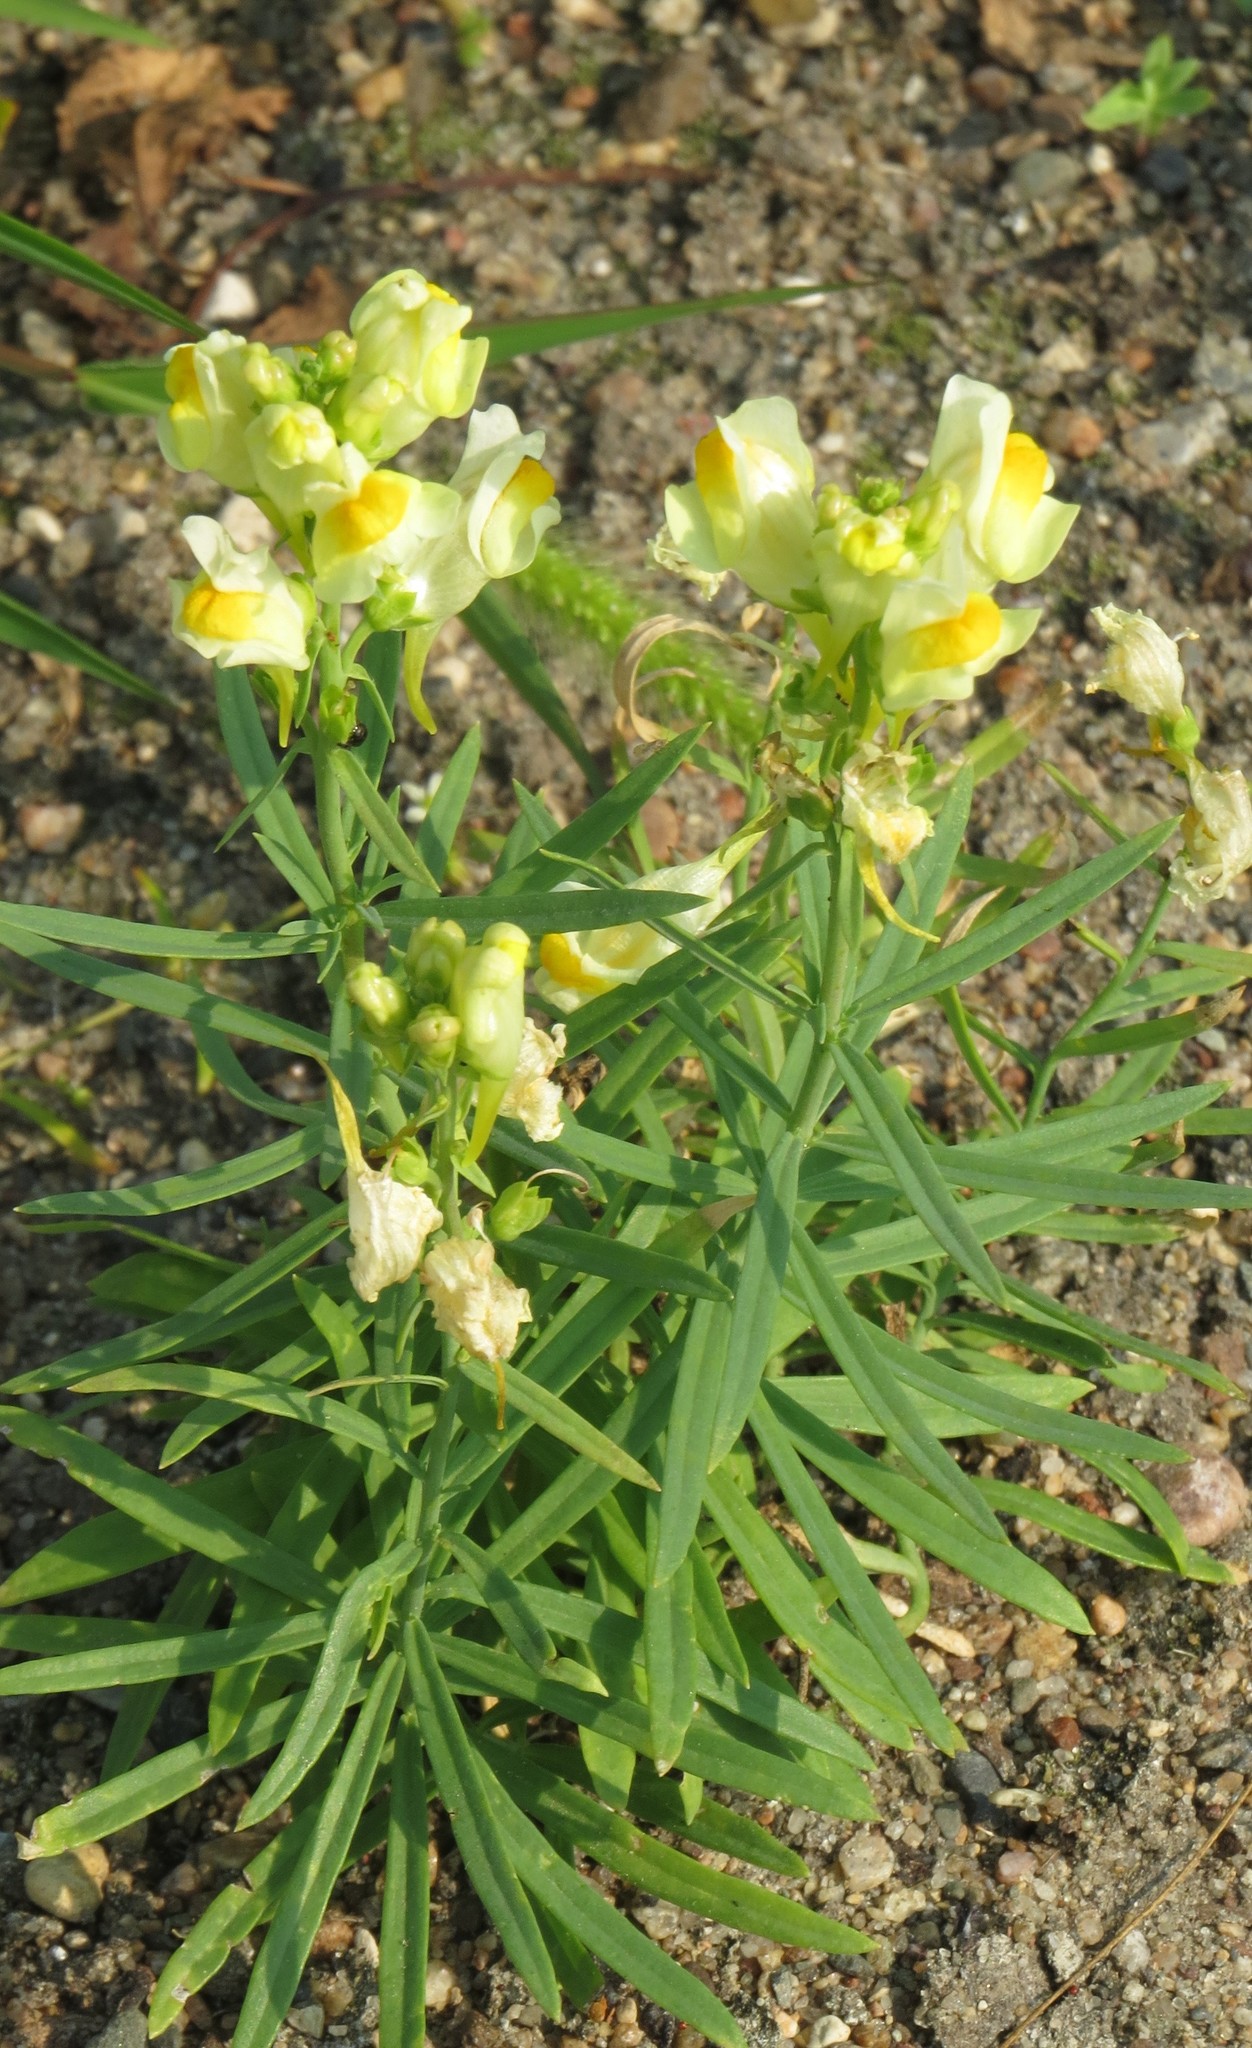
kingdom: Plantae
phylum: Tracheophyta
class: Magnoliopsida
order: Lamiales
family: Plantaginaceae
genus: Linaria
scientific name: Linaria vulgaris
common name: Butter and eggs
